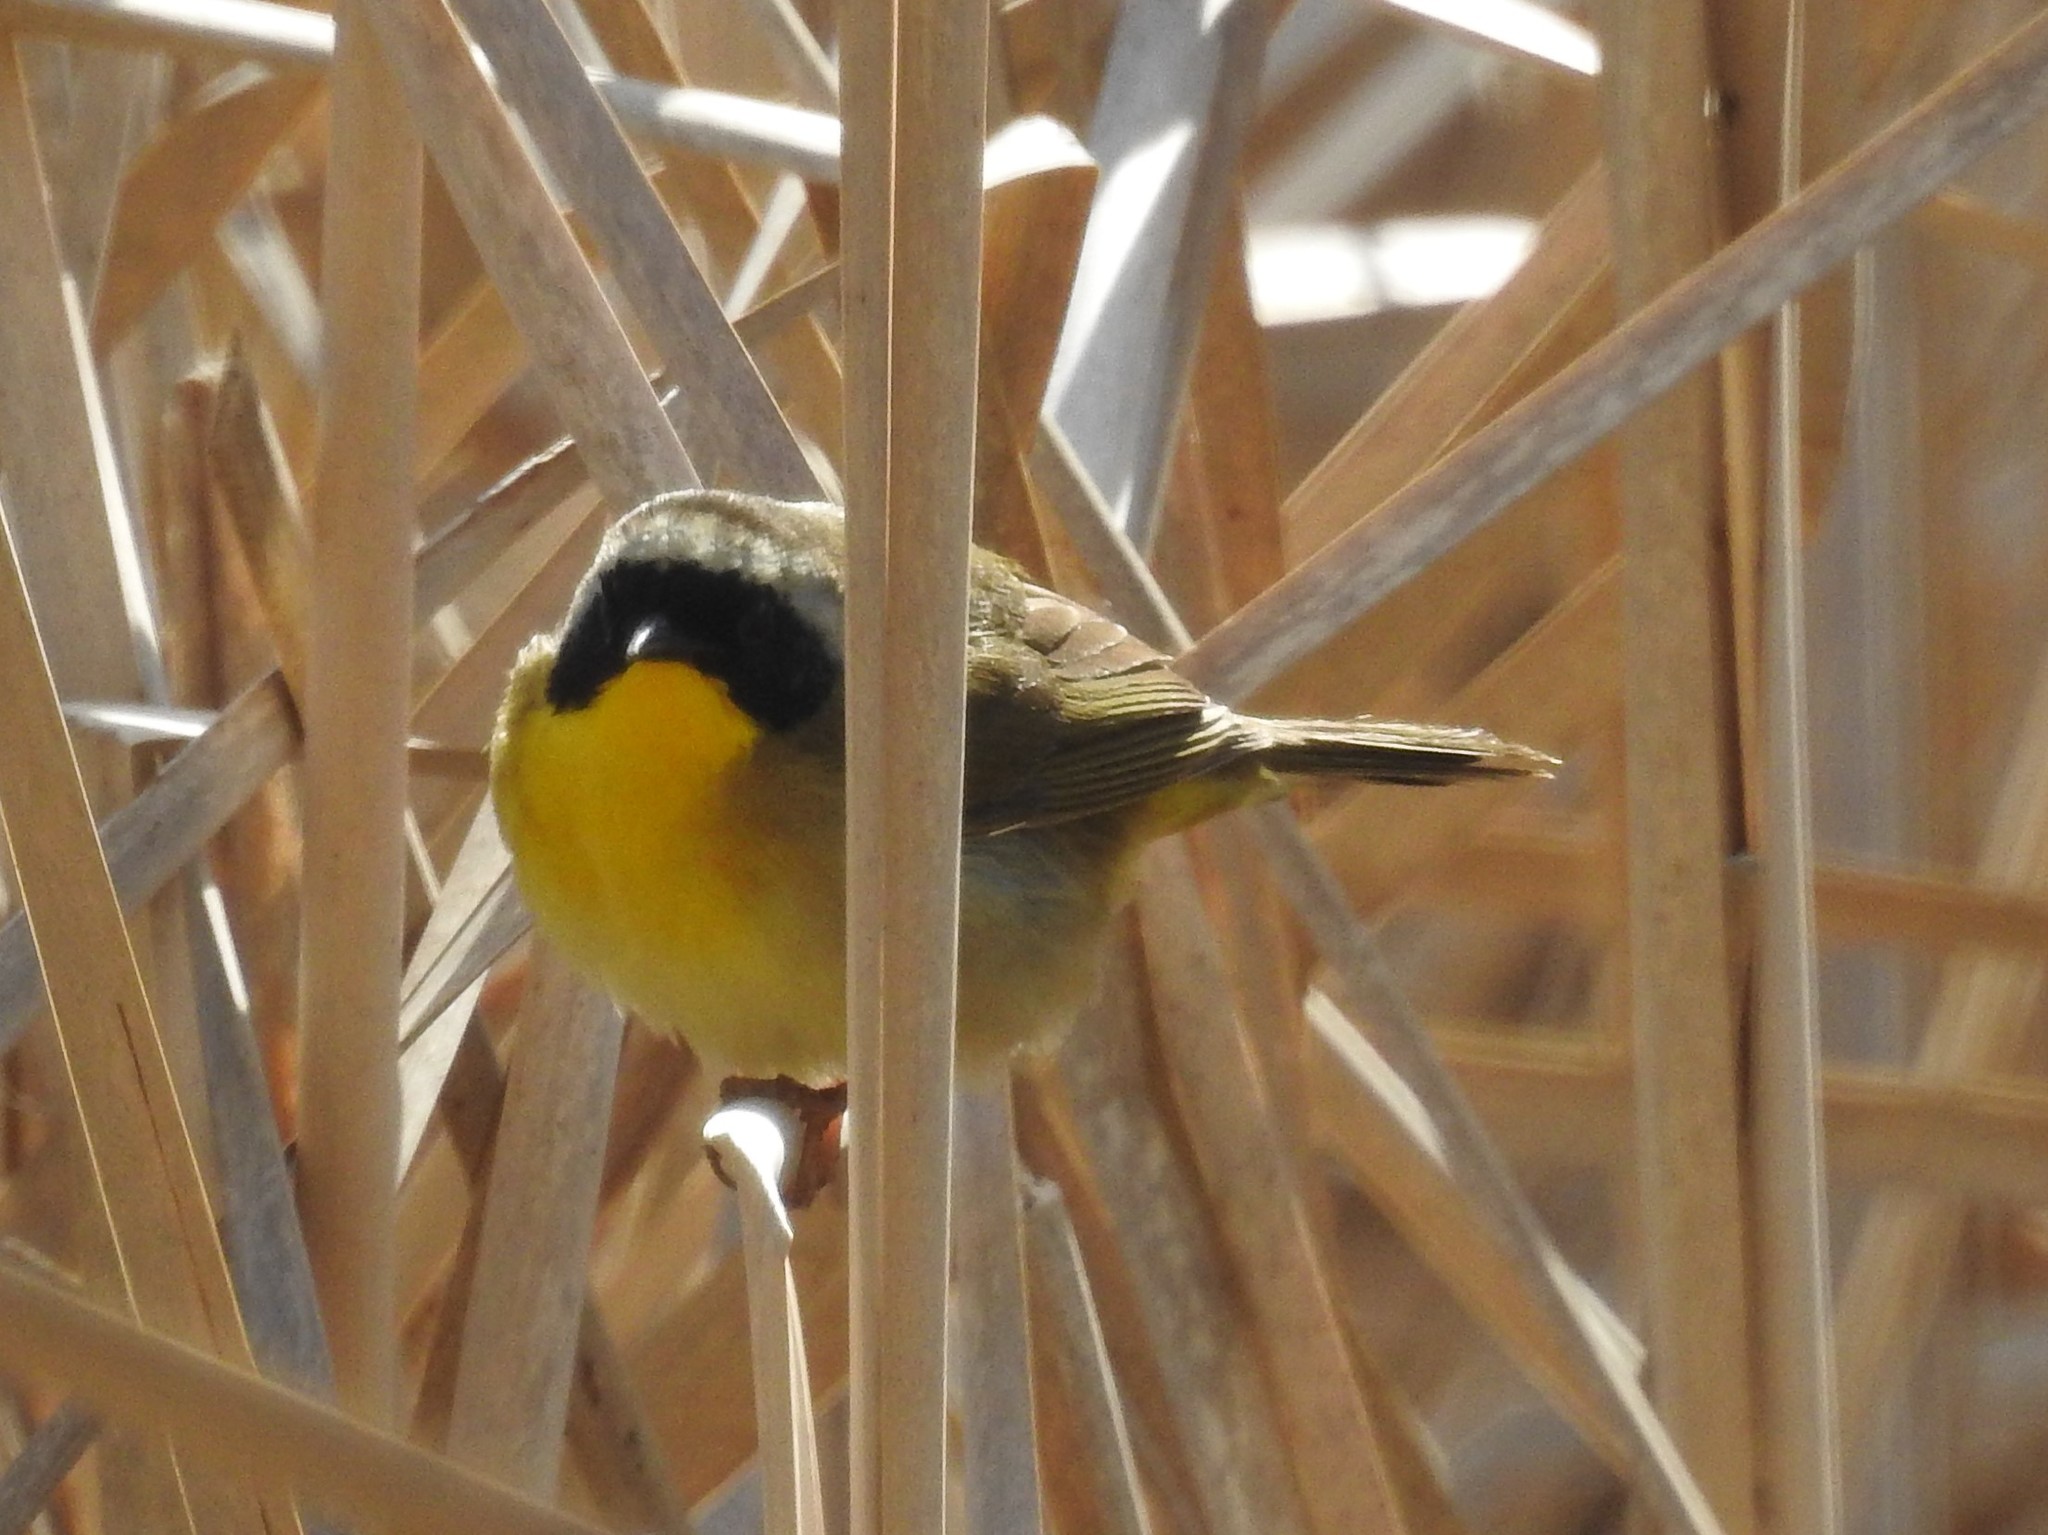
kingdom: Animalia
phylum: Chordata
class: Aves
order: Passeriformes
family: Parulidae
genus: Geothlypis
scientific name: Geothlypis trichas
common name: Common yellowthroat
